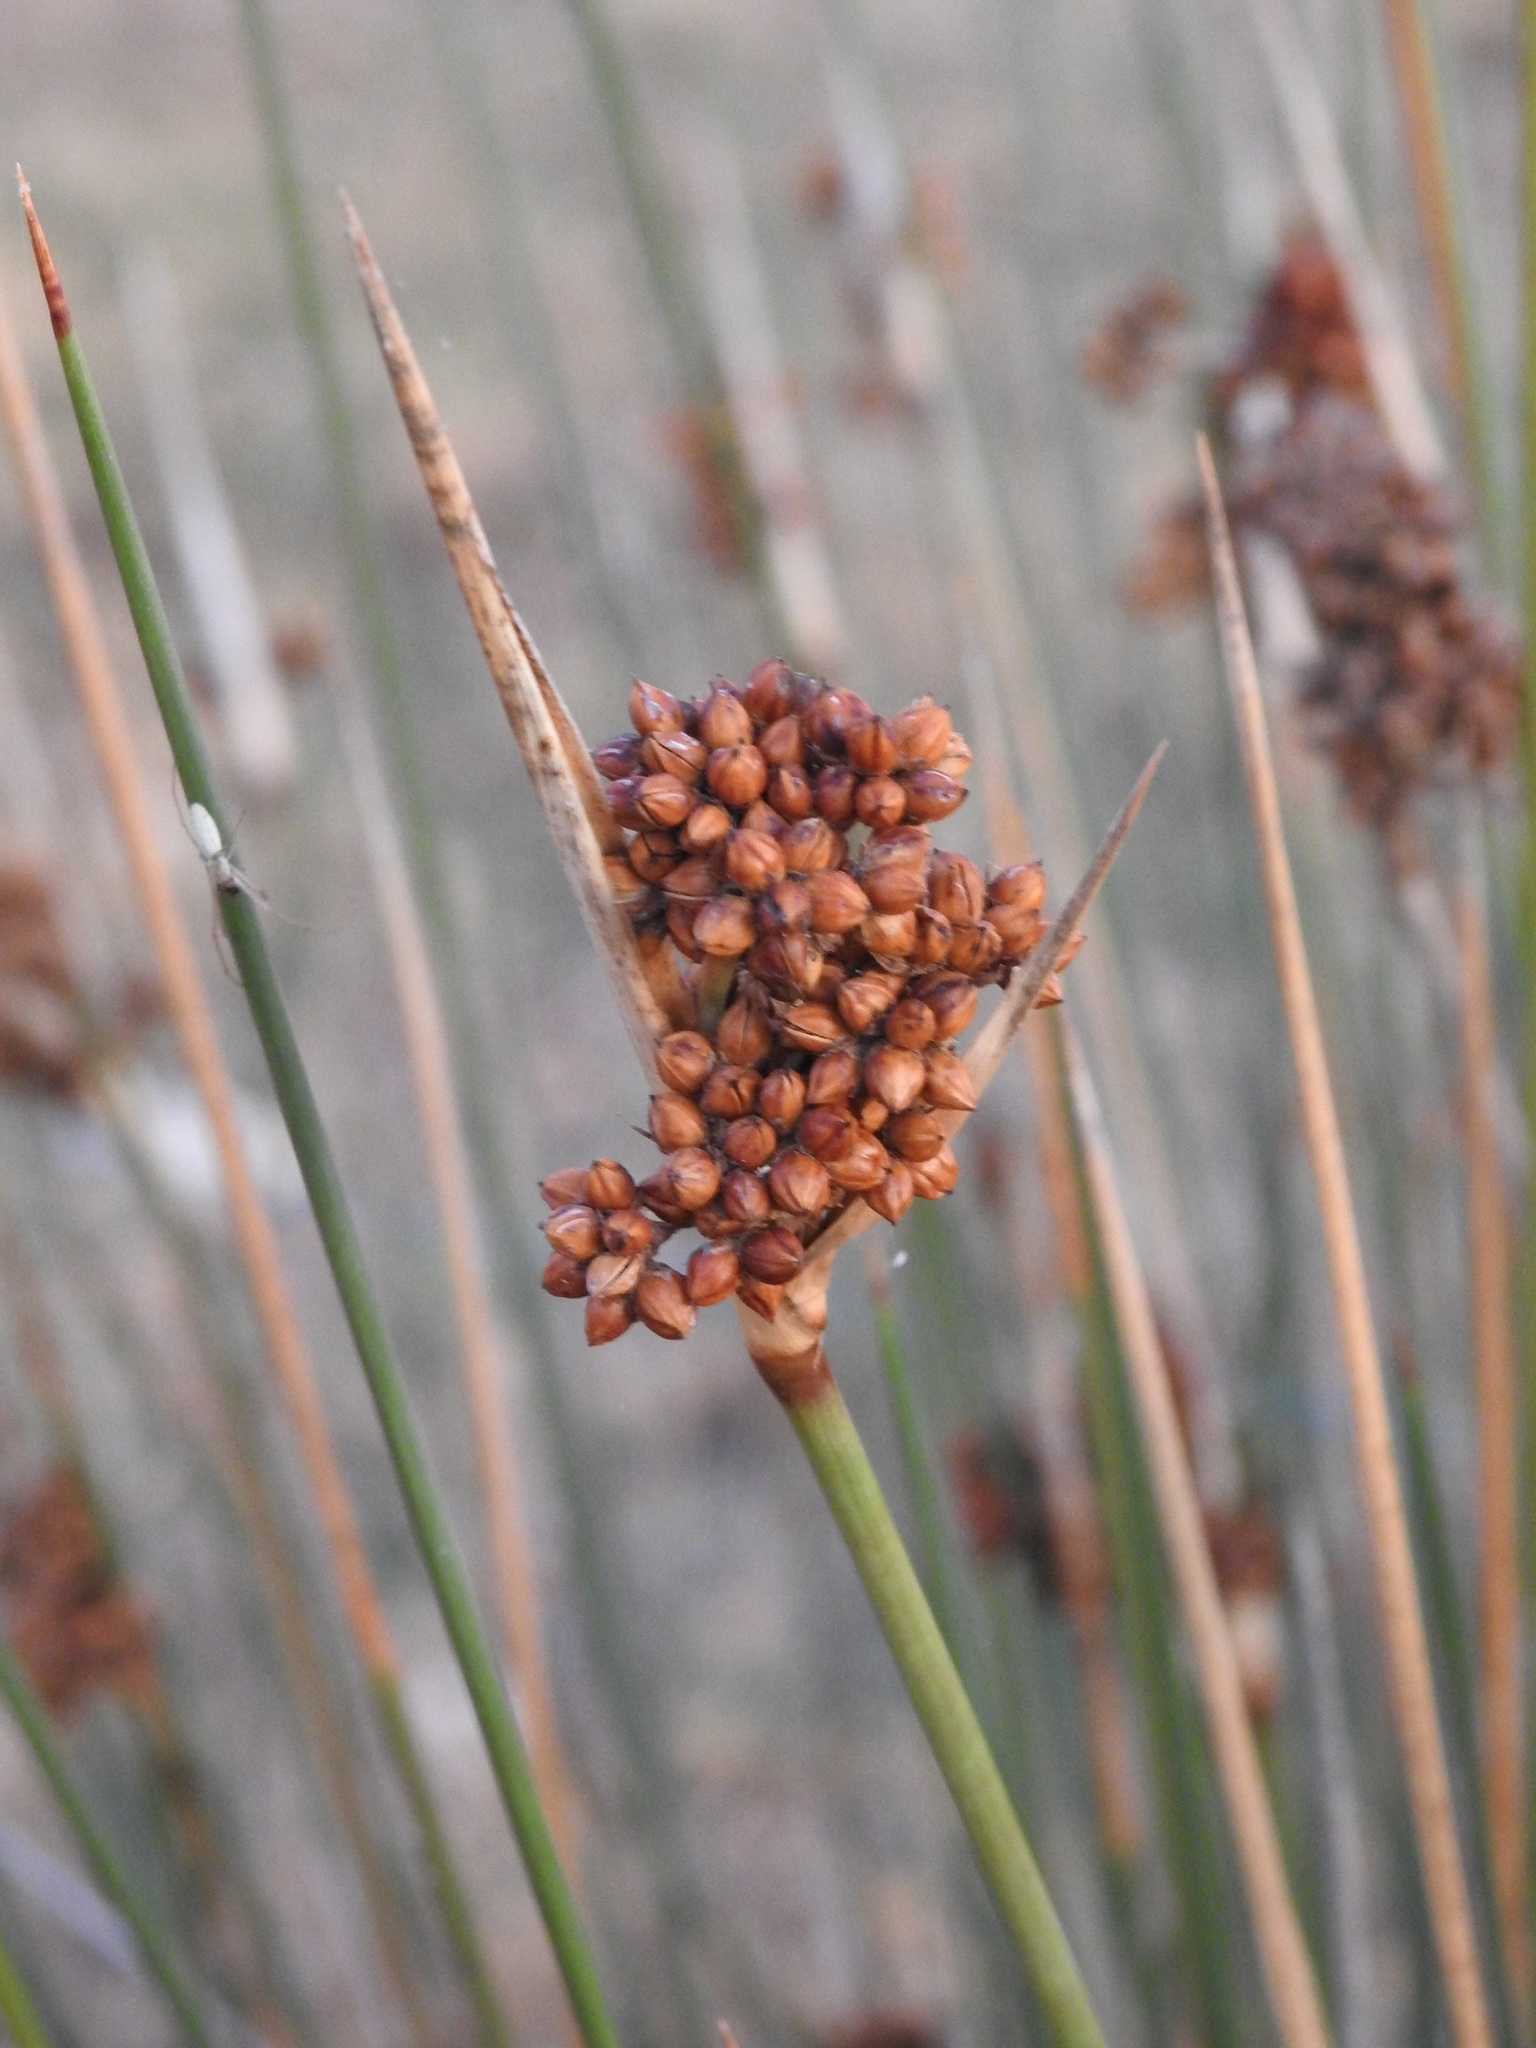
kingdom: Plantae
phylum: Tracheophyta
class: Liliopsida
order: Poales
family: Juncaceae
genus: Juncus
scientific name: Juncus acutus
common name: Sharp rush
